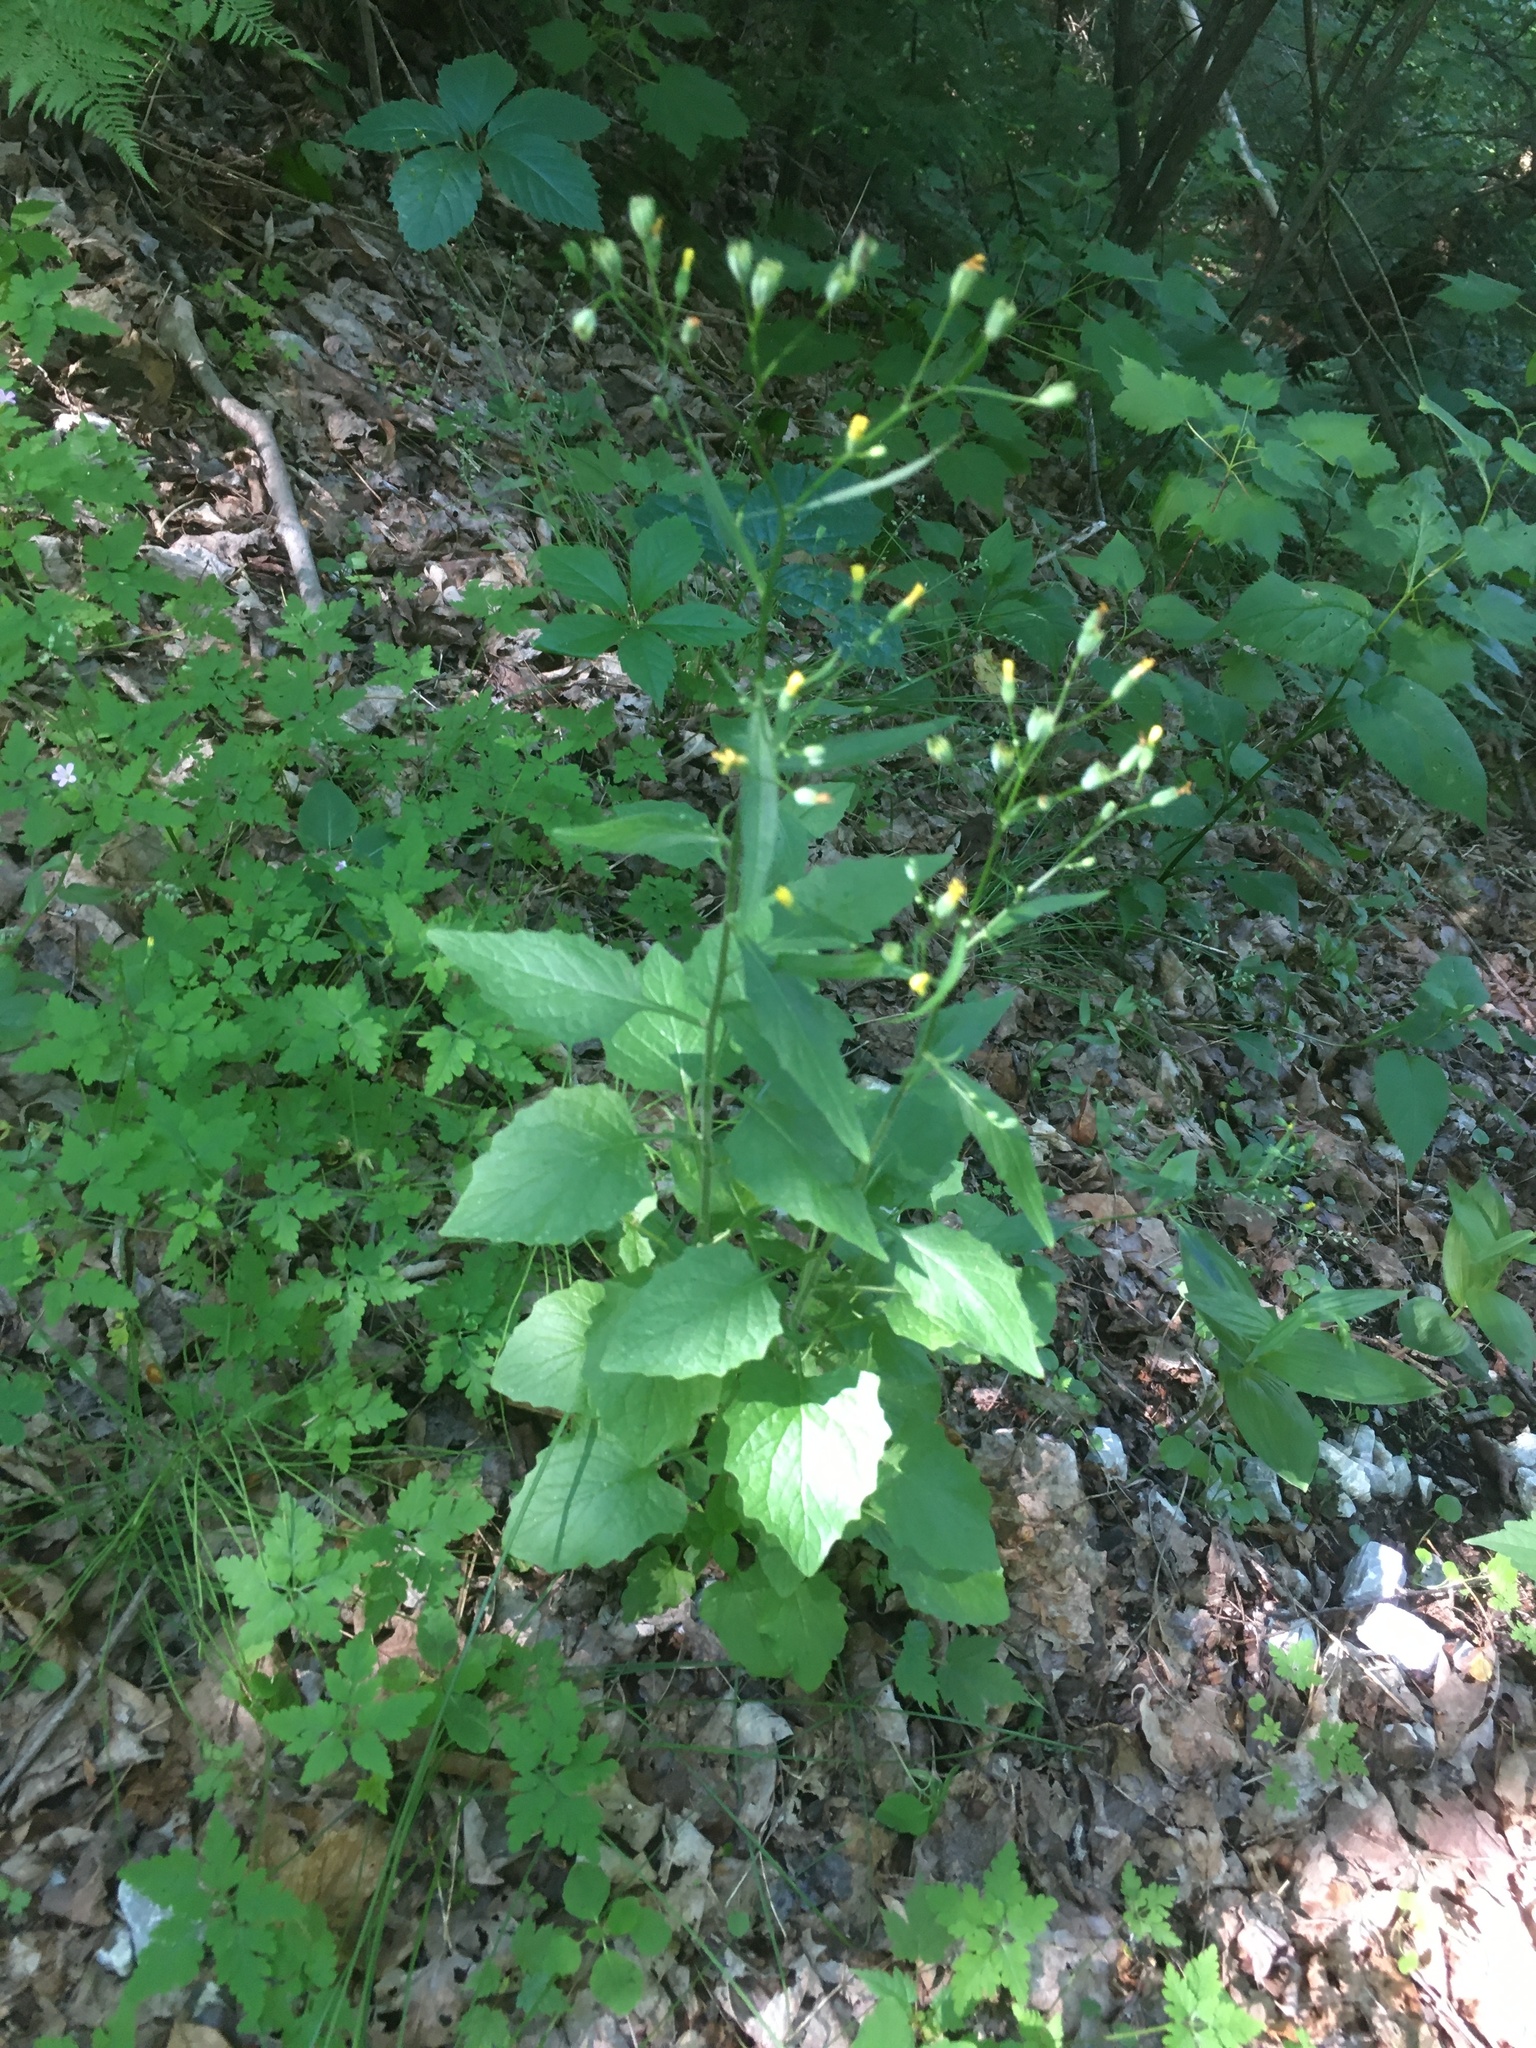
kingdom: Plantae
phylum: Tracheophyta
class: Magnoliopsida
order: Asterales
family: Asteraceae
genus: Lapsana
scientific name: Lapsana communis
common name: Nipplewort
